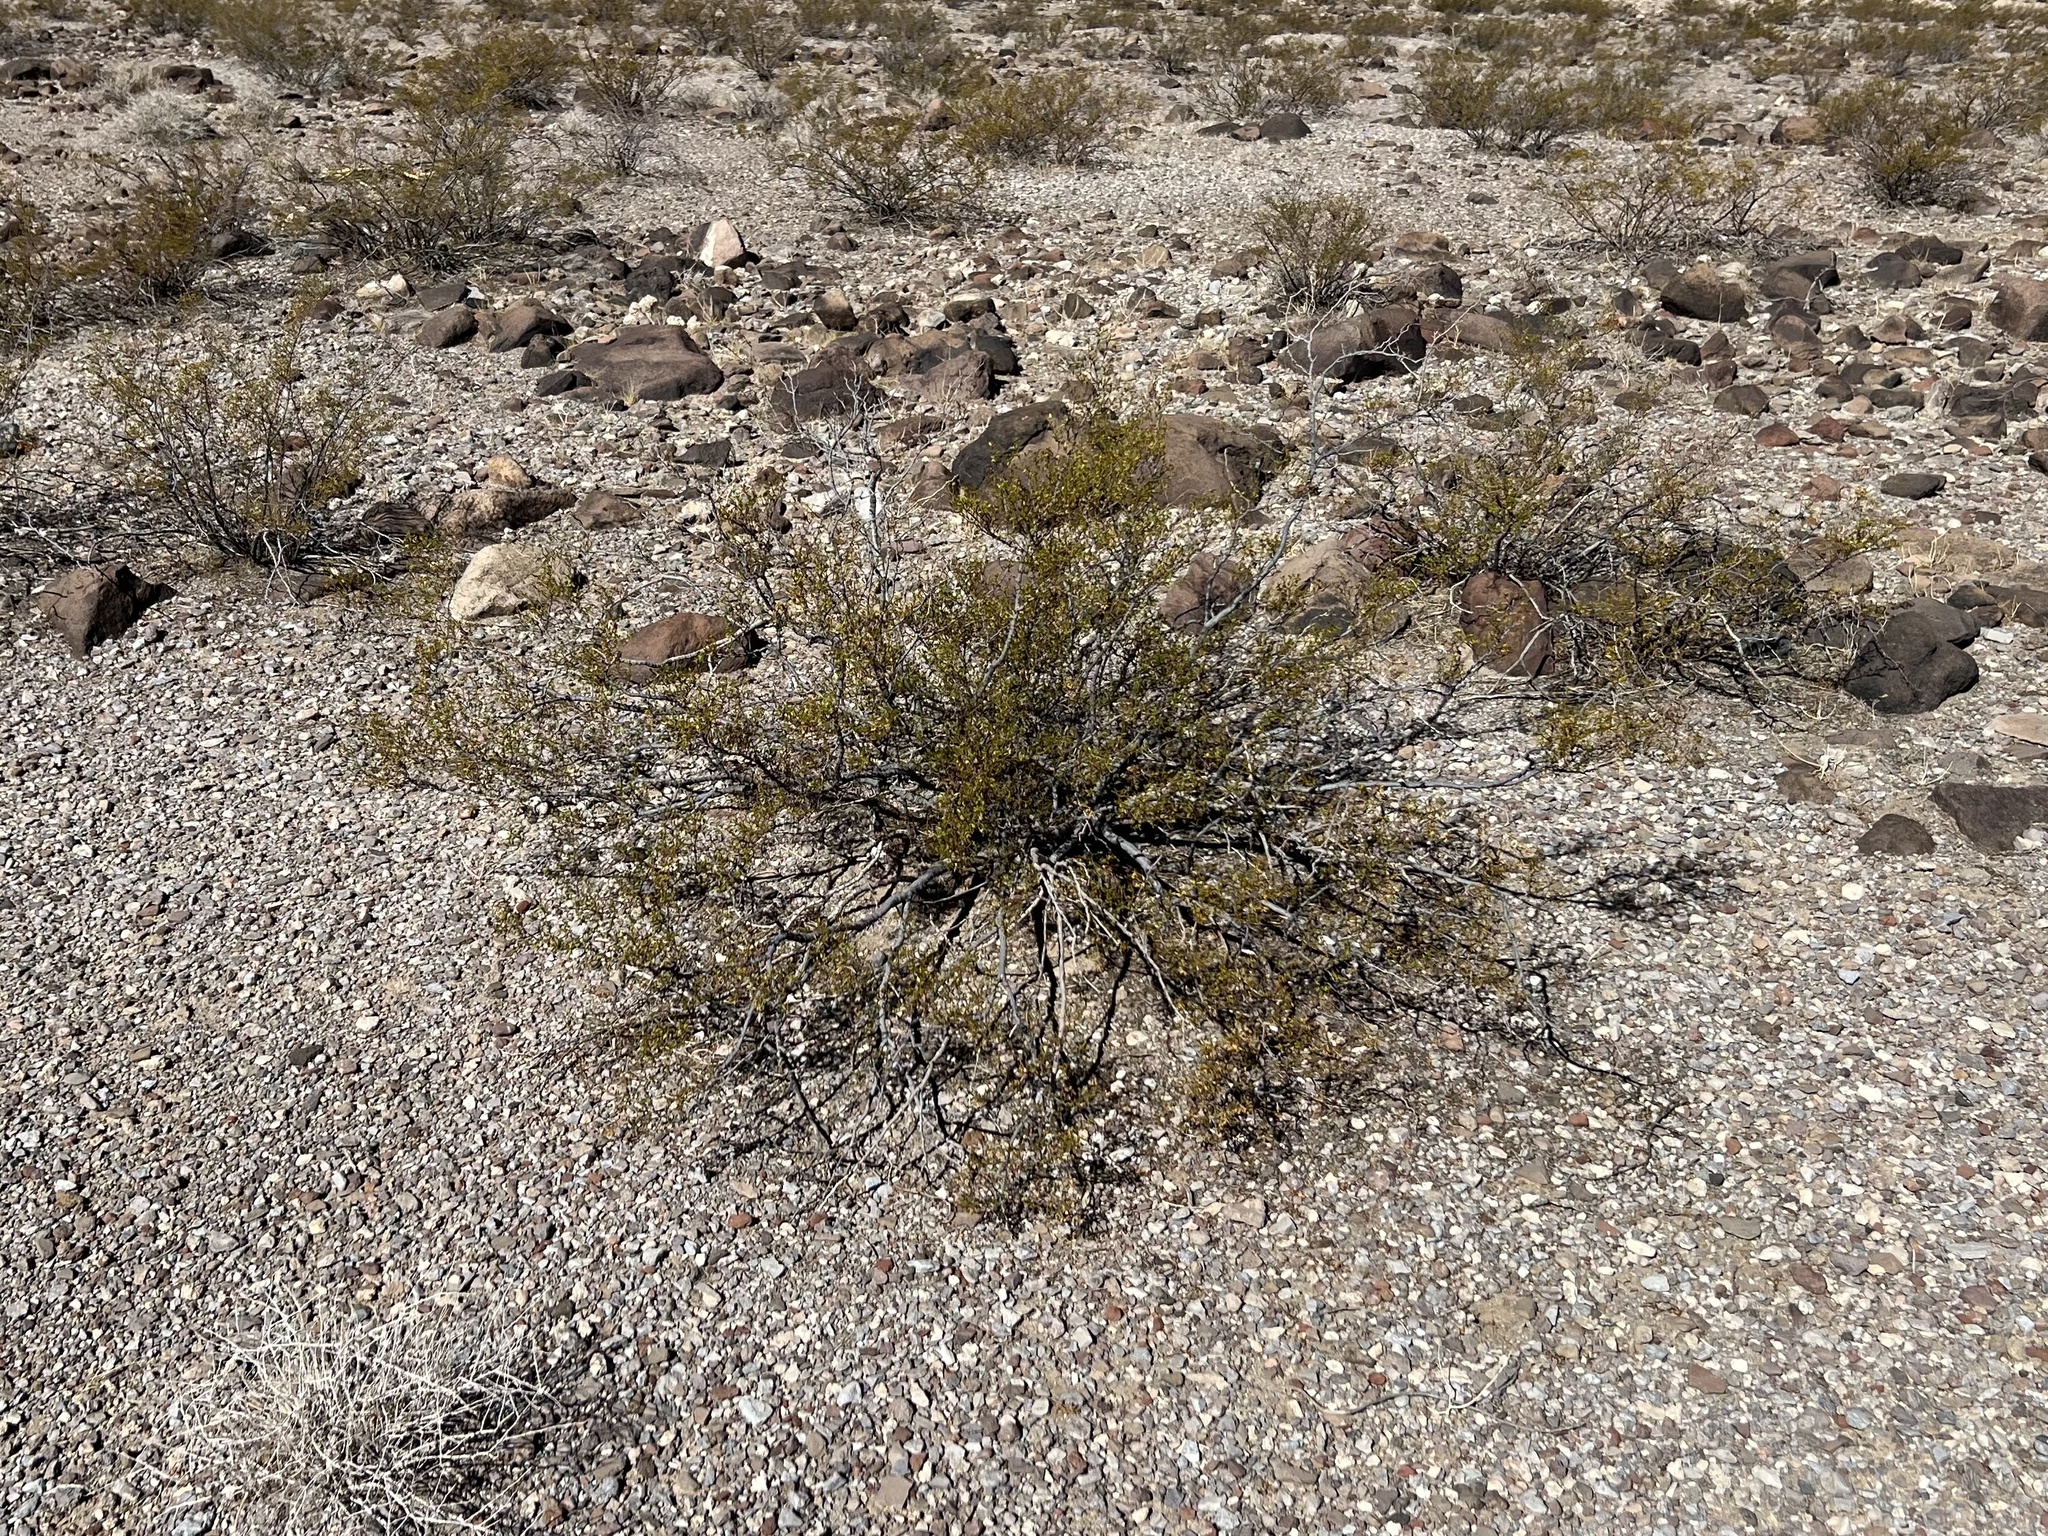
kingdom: Plantae
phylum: Tracheophyta
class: Magnoliopsida
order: Zygophyllales
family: Zygophyllaceae
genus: Larrea
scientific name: Larrea tridentata
